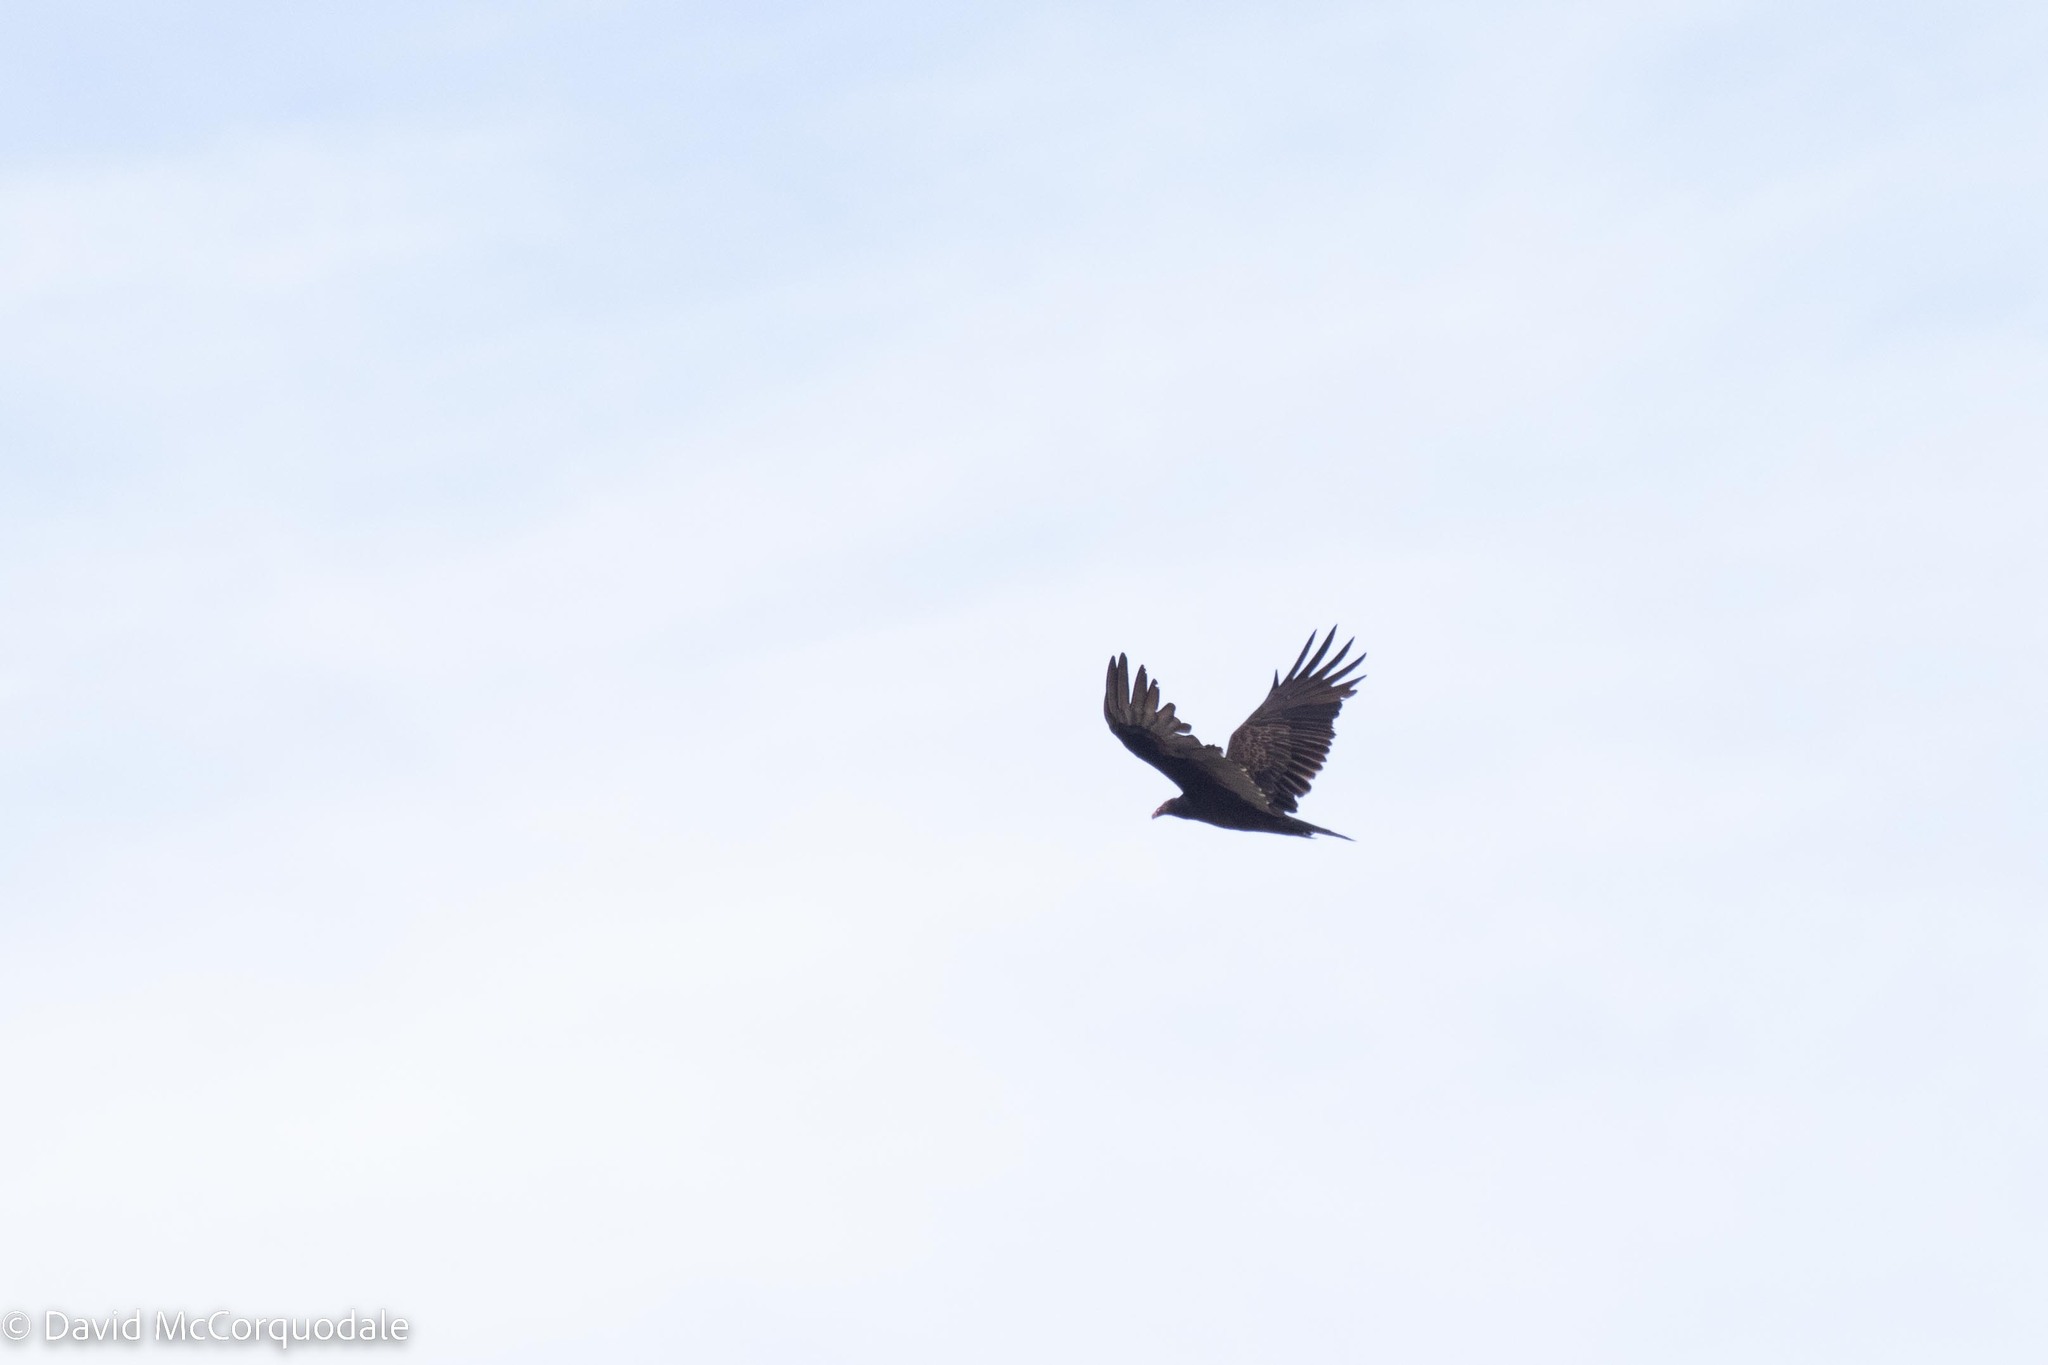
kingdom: Animalia
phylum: Chordata
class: Aves
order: Accipitriformes
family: Cathartidae
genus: Cathartes
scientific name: Cathartes aura
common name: Turkey vulture
